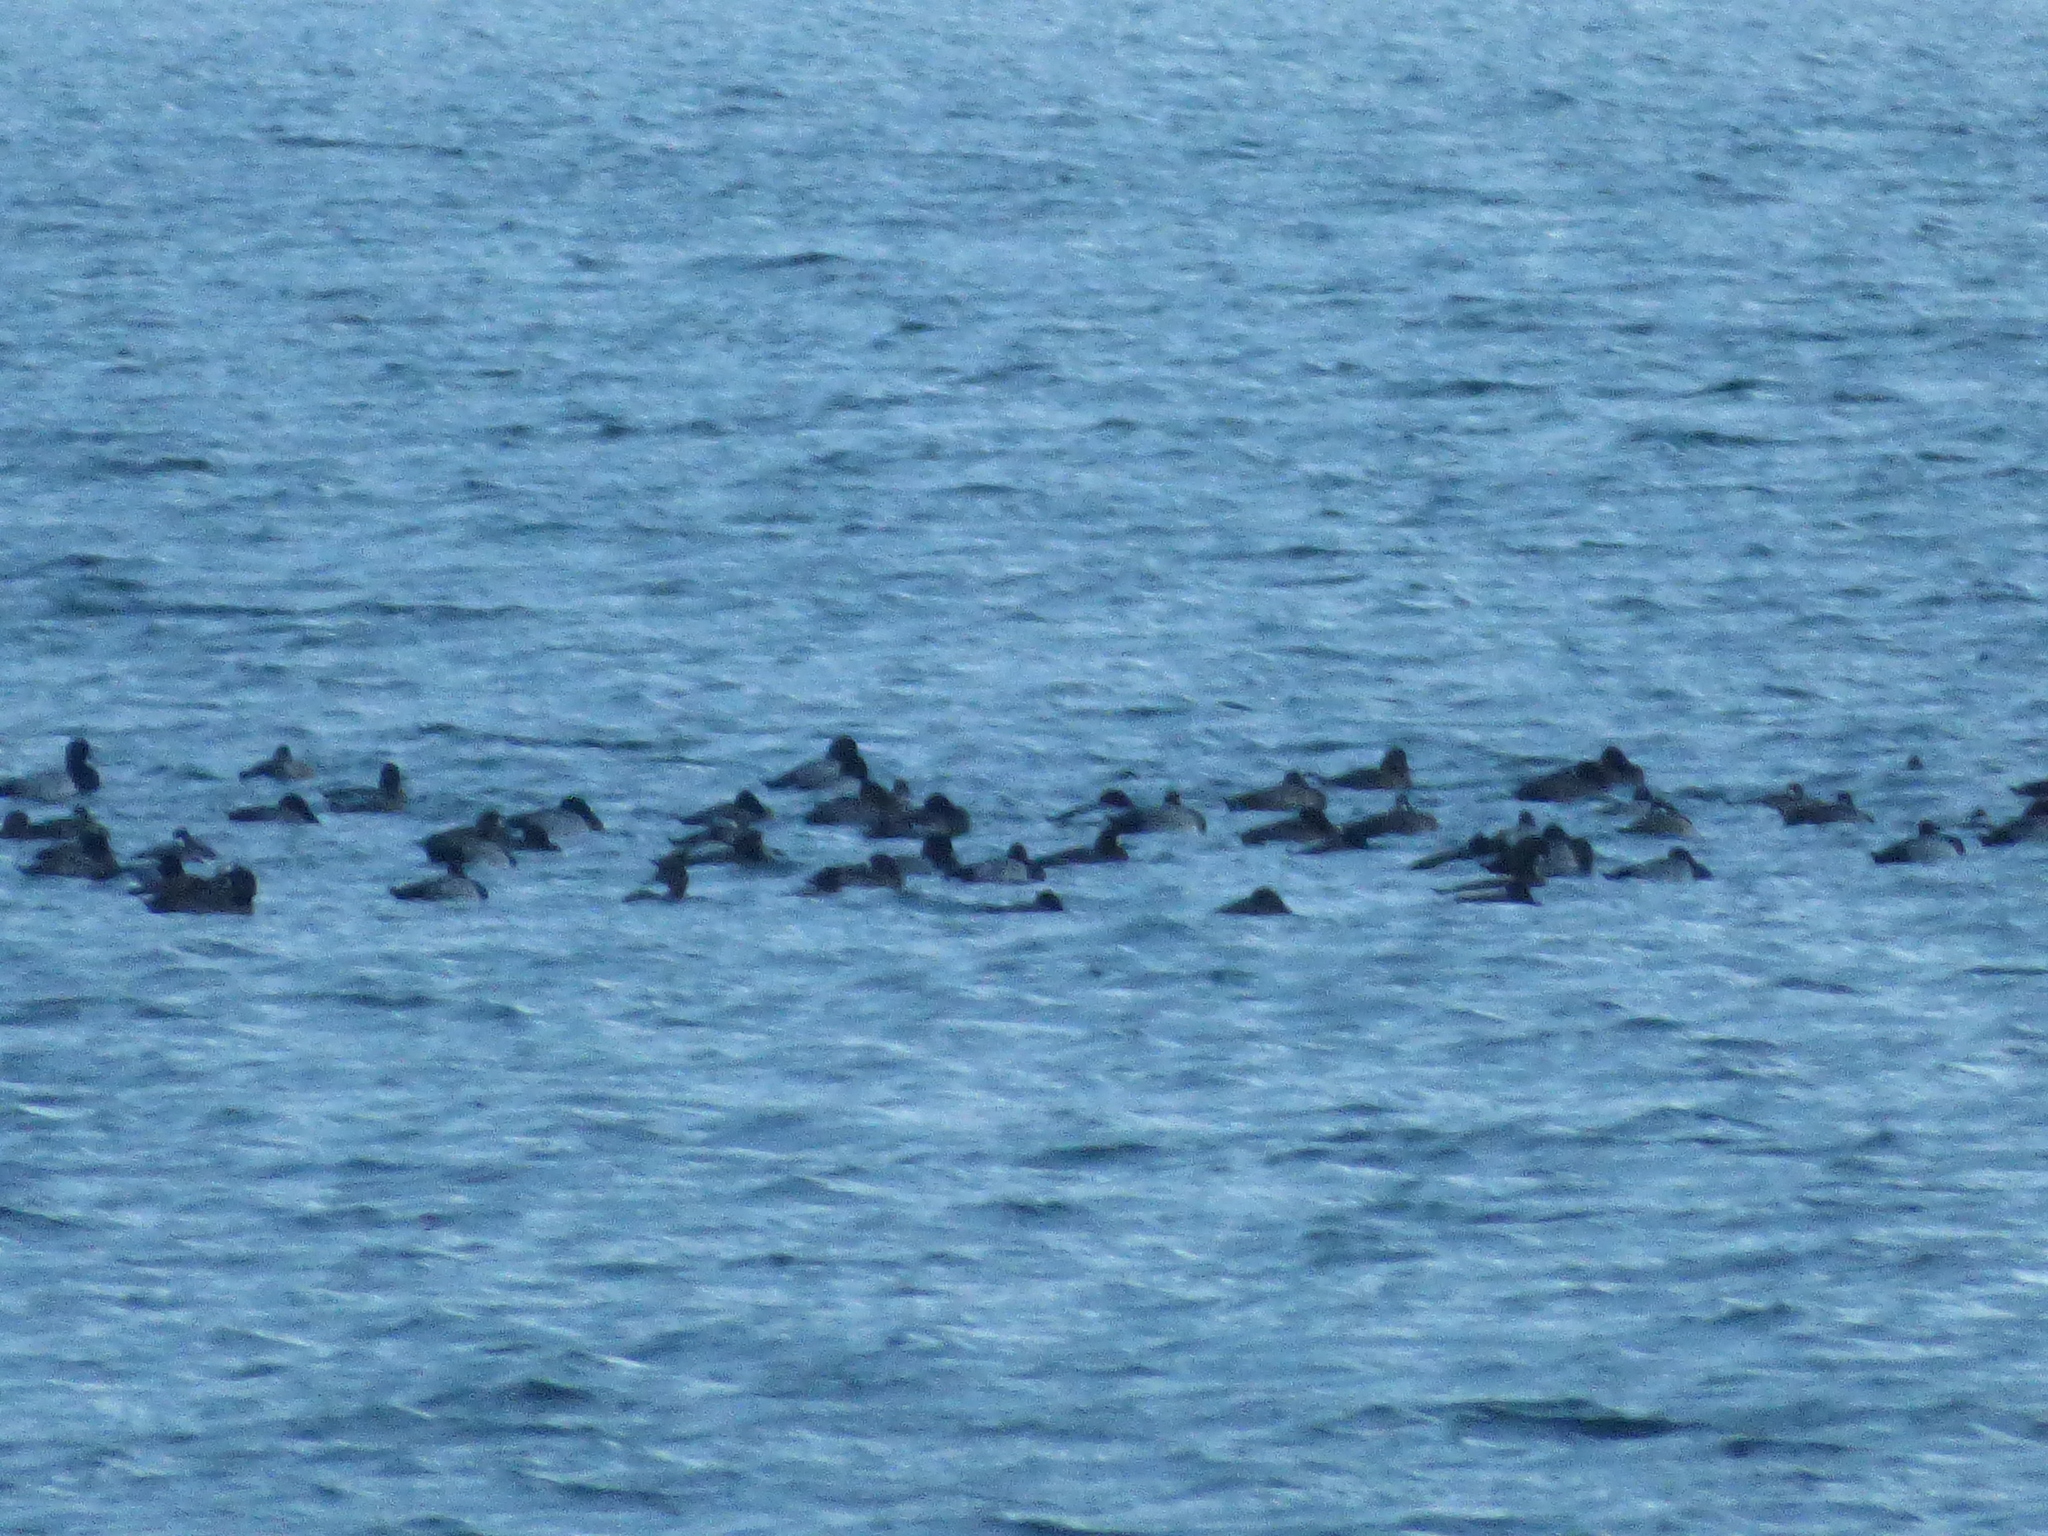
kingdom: Animalia
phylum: Chordata
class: Aves
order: Anseriformes
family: Anatidae
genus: Aythya
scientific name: Aythya marila
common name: Greater scaup
